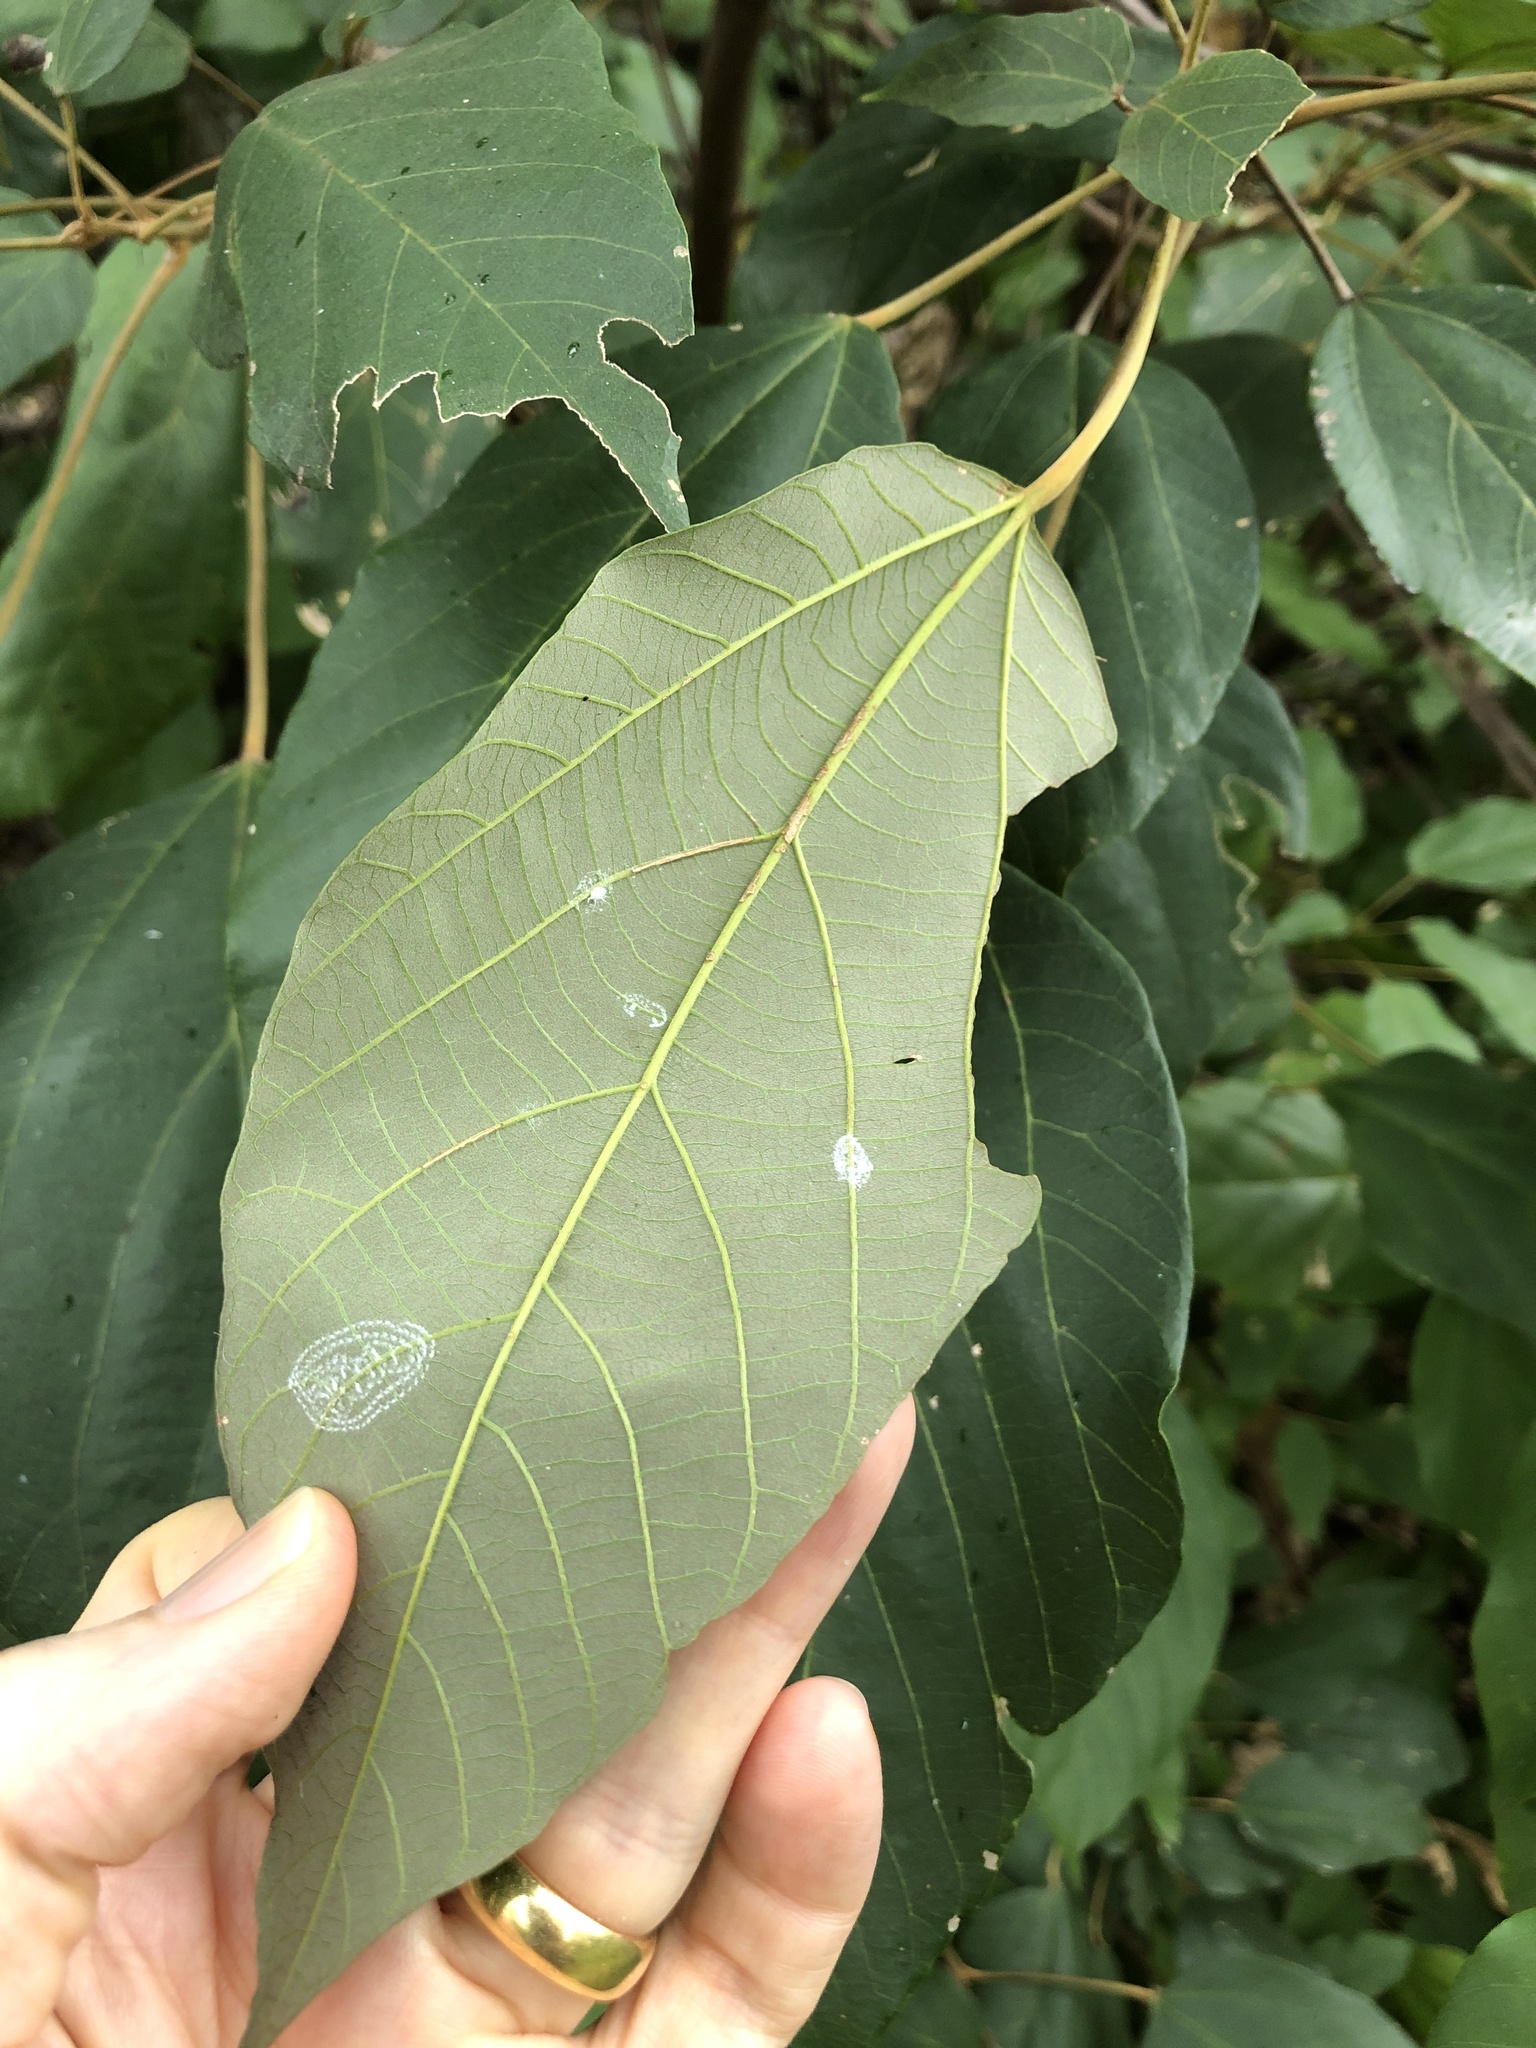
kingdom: Plantae
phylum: Tracheophyta
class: Magnoliopsida
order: Malpighiales
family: Euphorbiaceae
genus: Mallotus
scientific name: Mallotus philippensis
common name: Kamala tree
